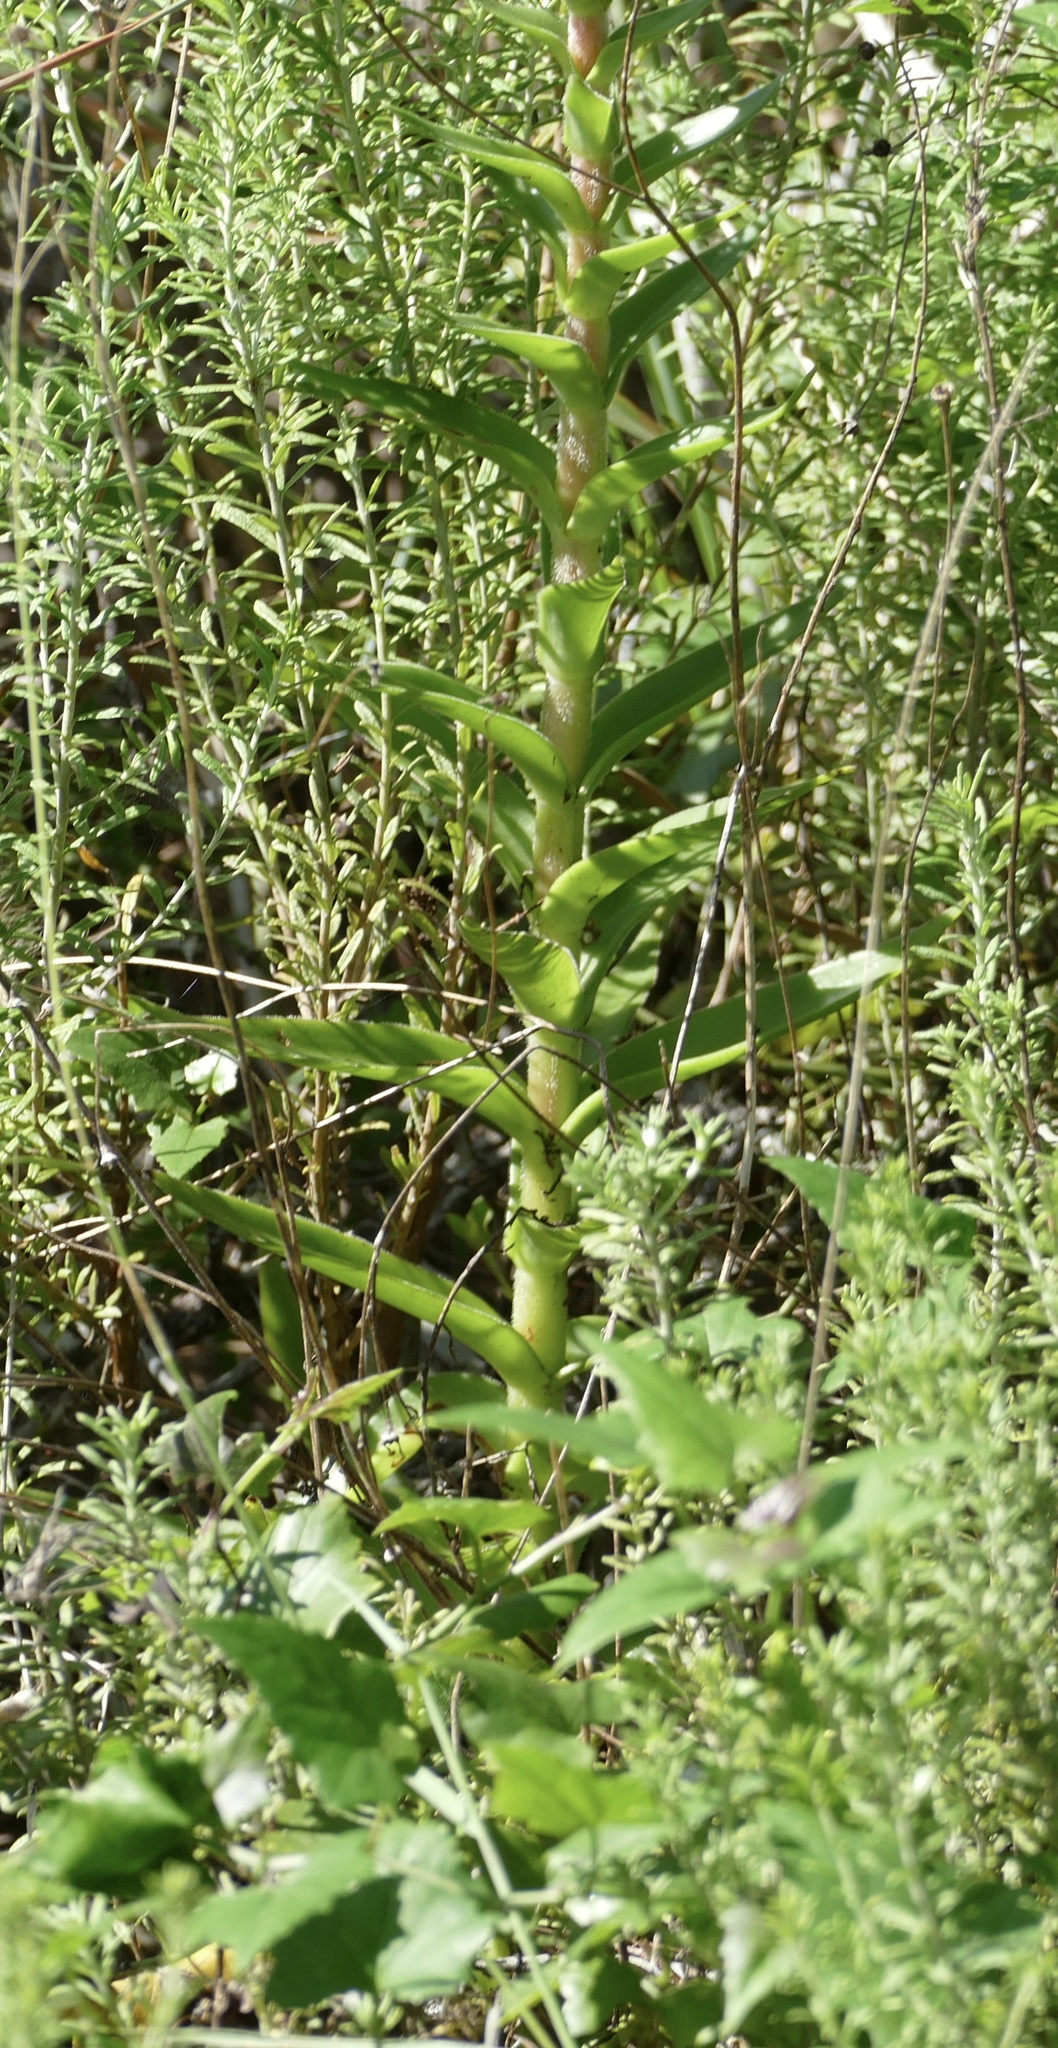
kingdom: Plantae
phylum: Tracheophyta
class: Magnoliopsida
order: Saxifragales
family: Crassulaceae
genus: Crassula
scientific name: Crassula alba
